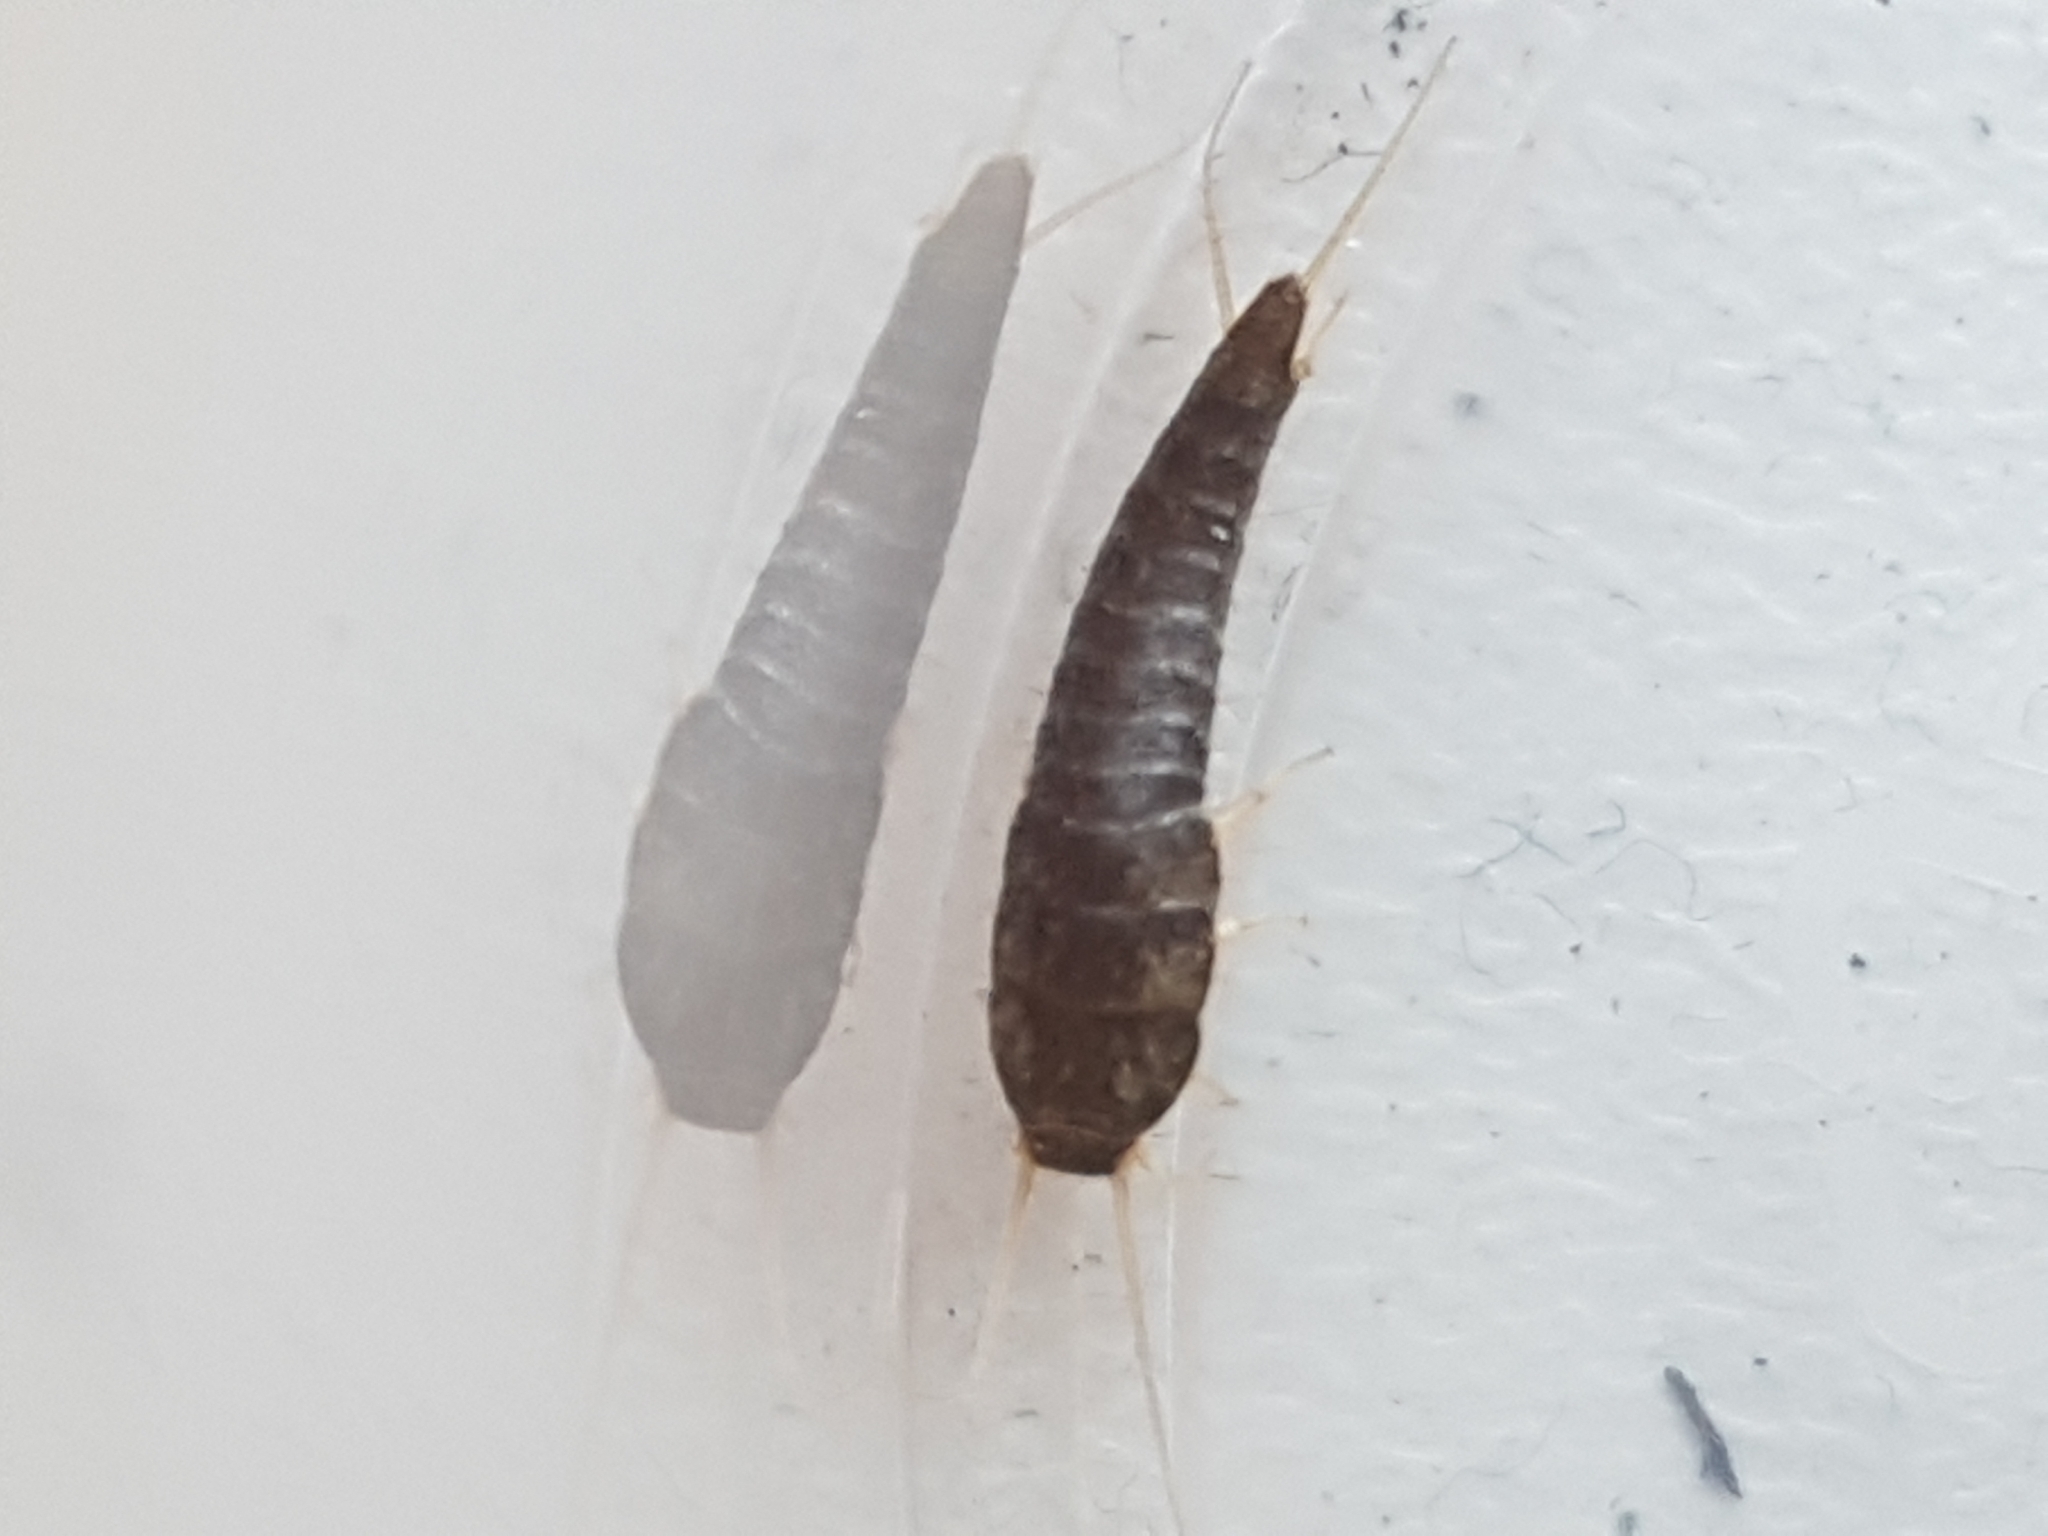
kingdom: Animalia
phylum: Arthropoda
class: Insecta
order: Zygentoma
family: Lepismatidae
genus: Lepisma
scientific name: Lepisma saccharinum
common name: Silverfish
